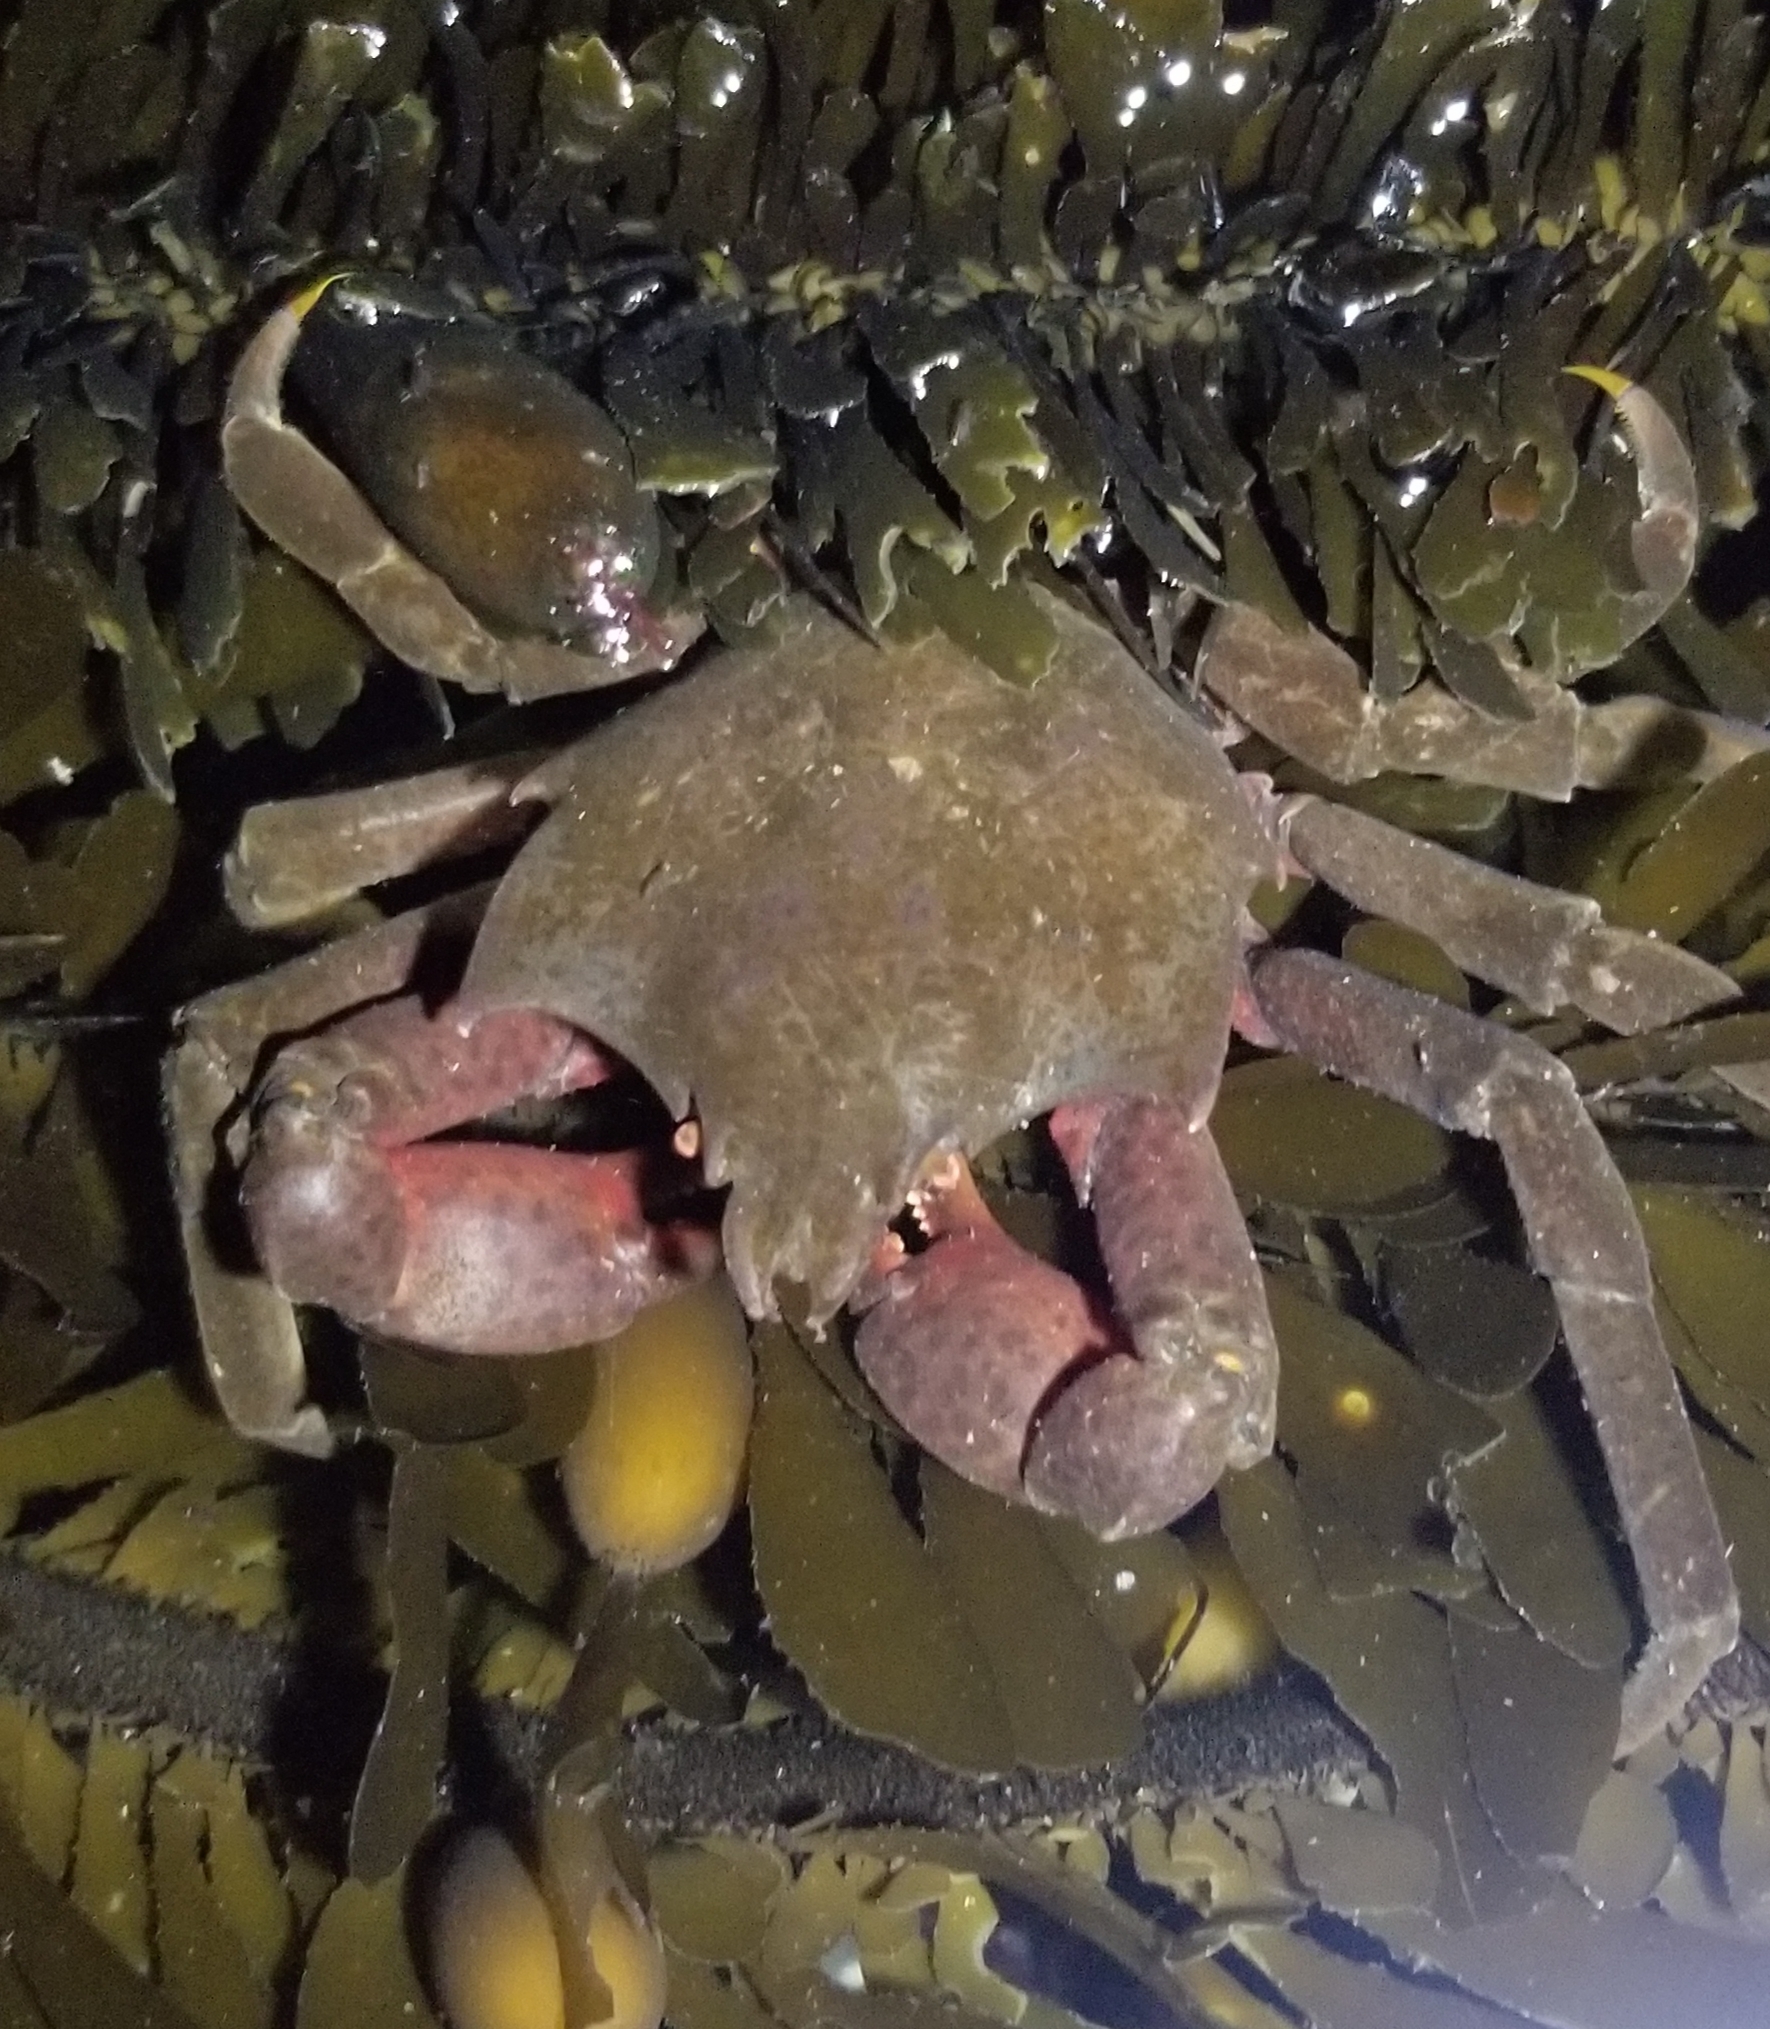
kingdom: Animalia
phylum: Arthropoda
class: Malacostraca
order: Decapoda
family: Epialtidae
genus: Pugettia
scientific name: Pugettia producta
